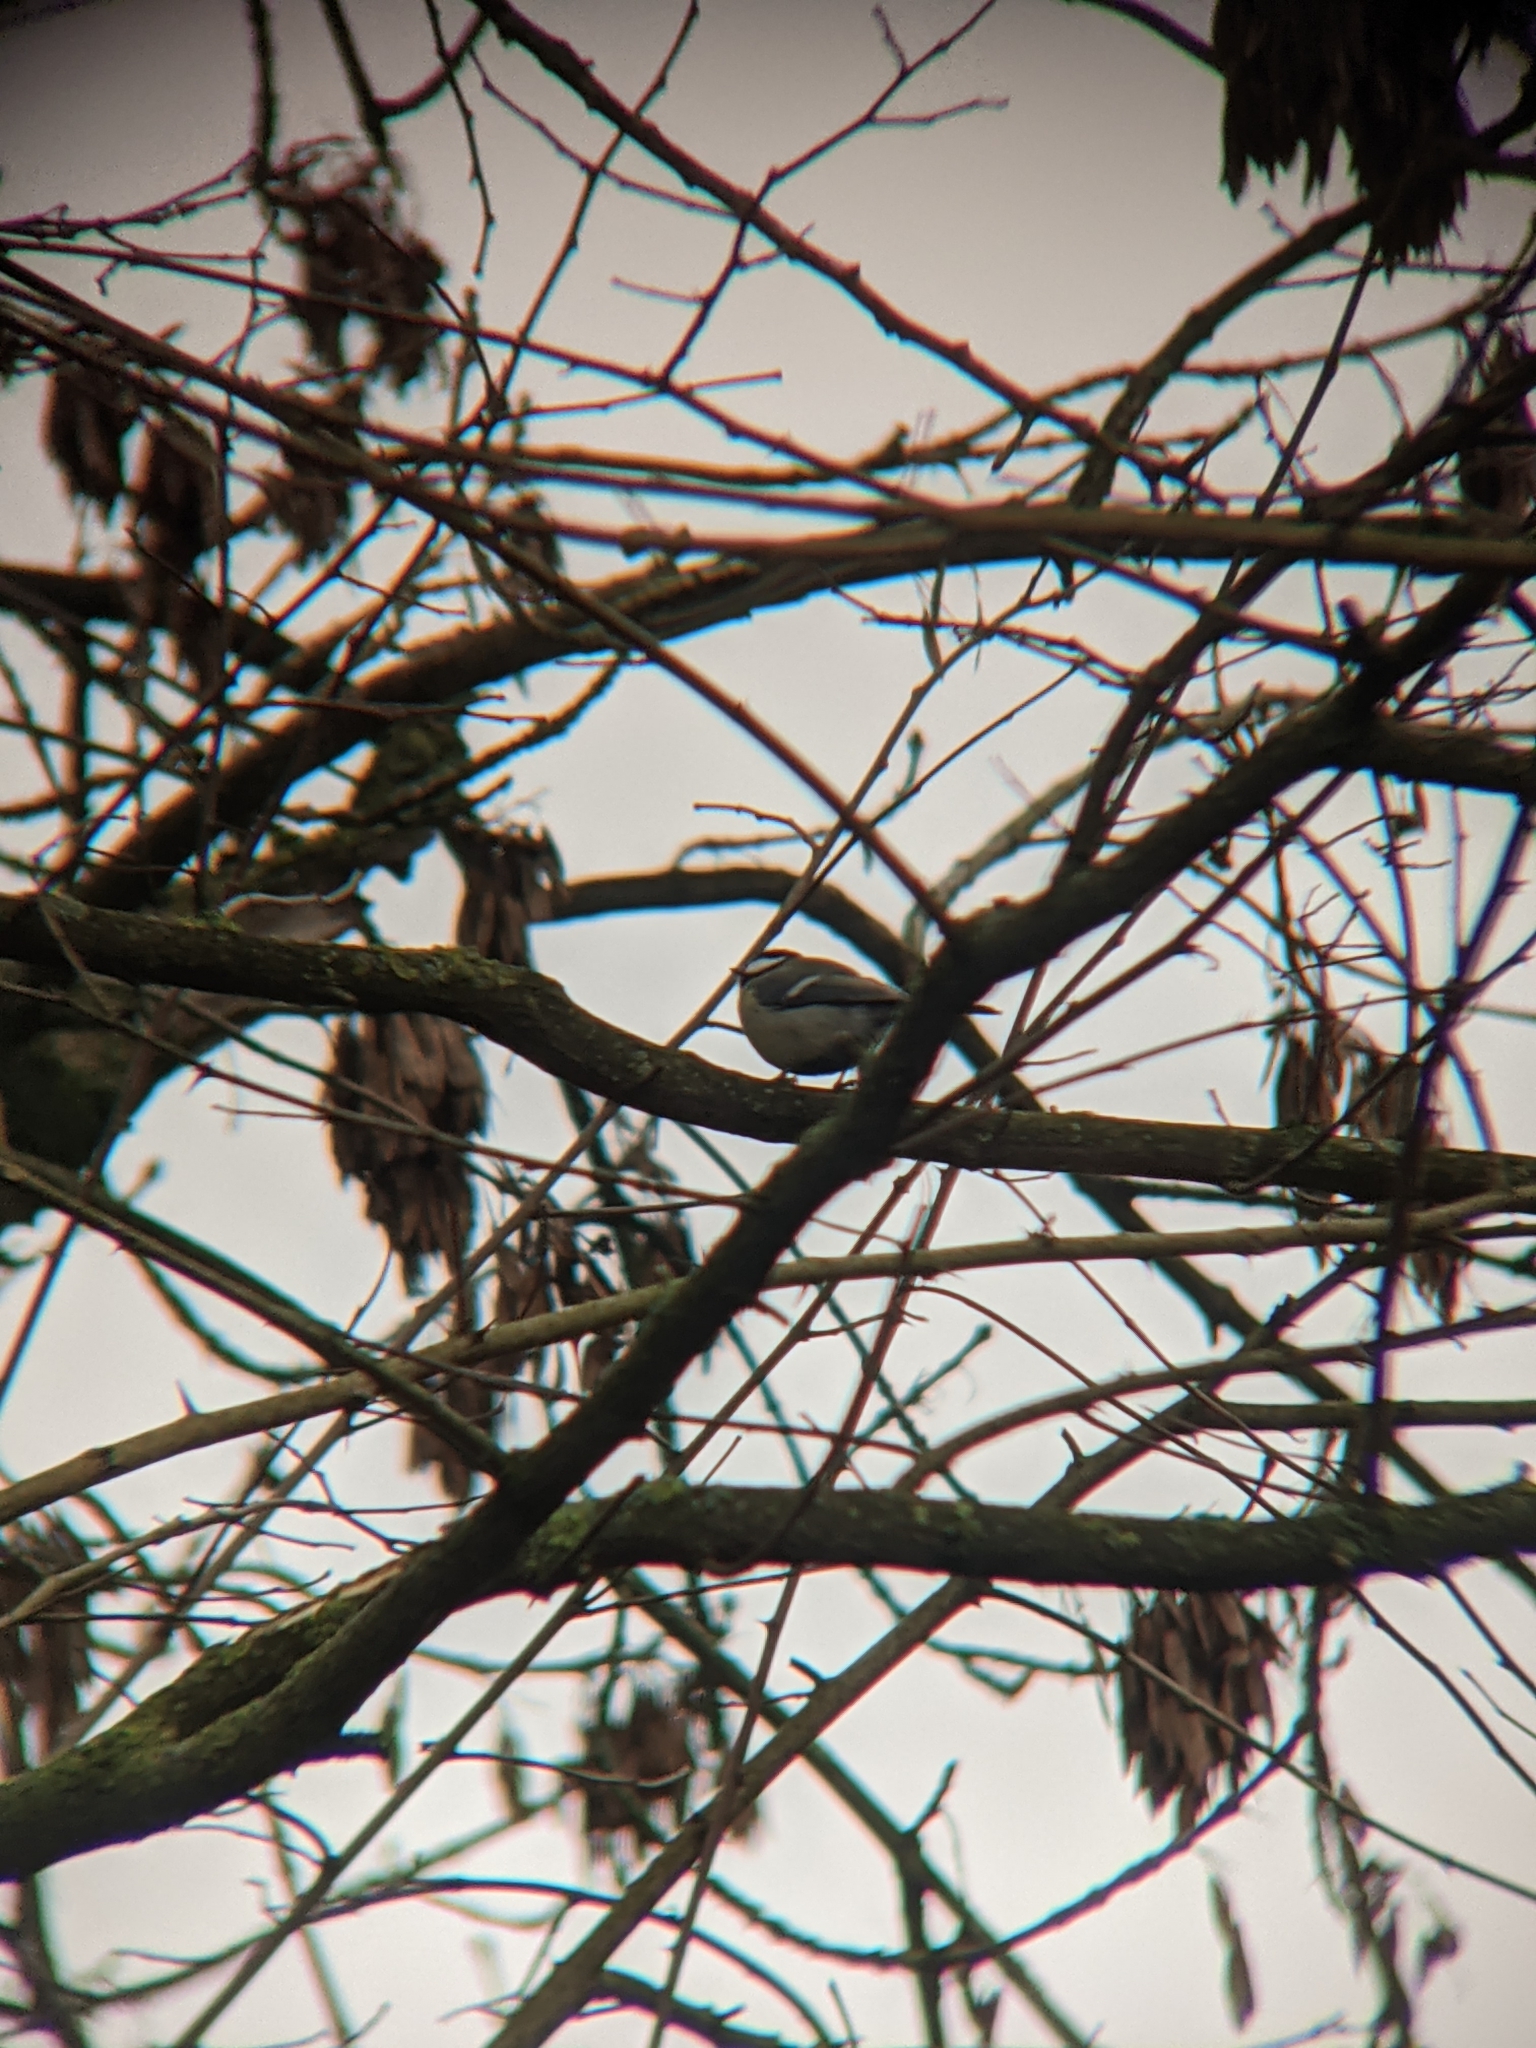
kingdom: Animalia
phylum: Chordata
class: Aves
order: Passeriformes
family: Paridae
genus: Parus
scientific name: Parus major
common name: Great tit
